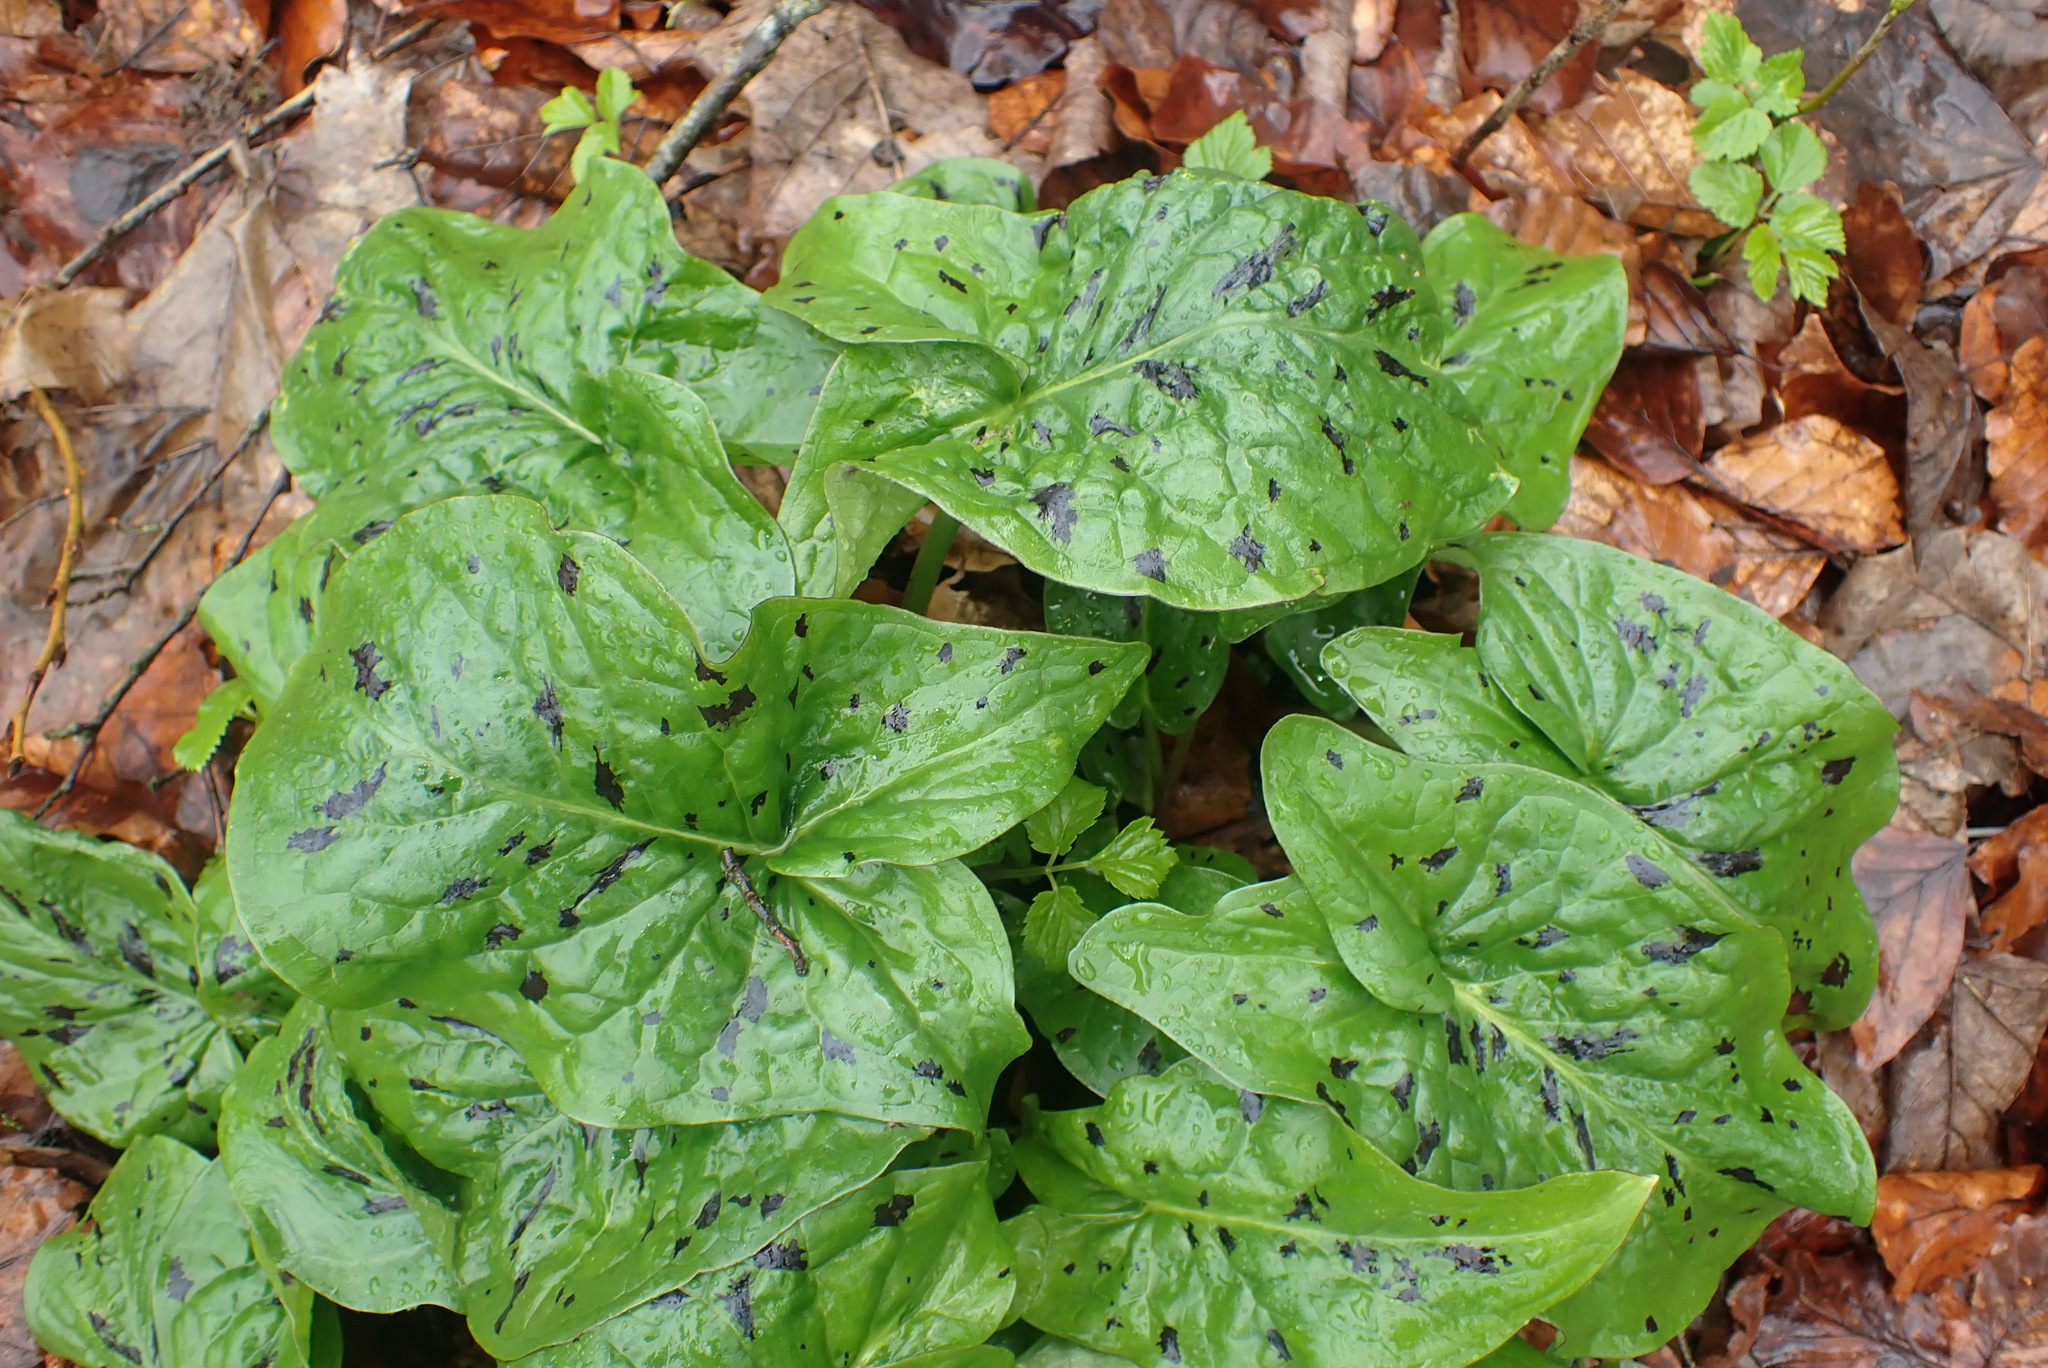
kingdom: Plantae
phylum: Tracheophyta
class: Liliopsida
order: Alismatales
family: Araceae
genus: Arum
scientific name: Arum maculatum
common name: Lords-and-ladies
